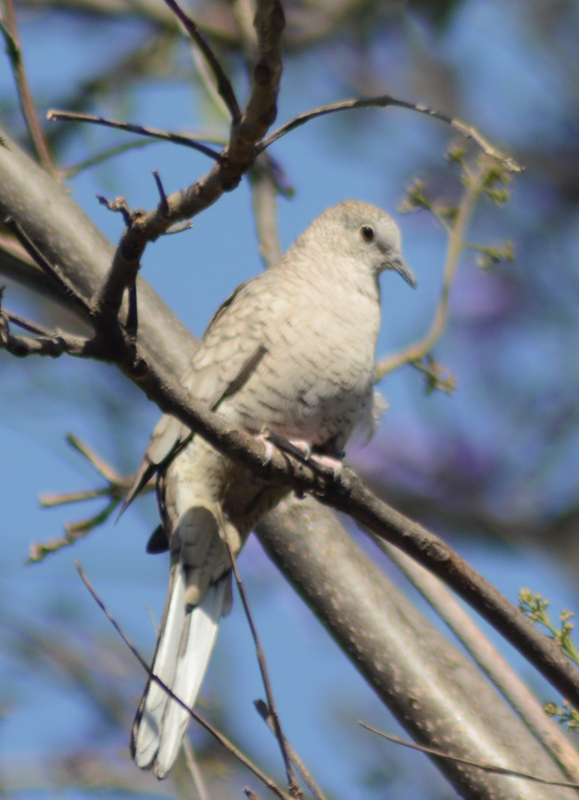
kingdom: Animalia
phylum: Chordata
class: Aves
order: Columbiformes
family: Columbidae
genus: Columbina
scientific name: Columbina inca
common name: Inca dove
